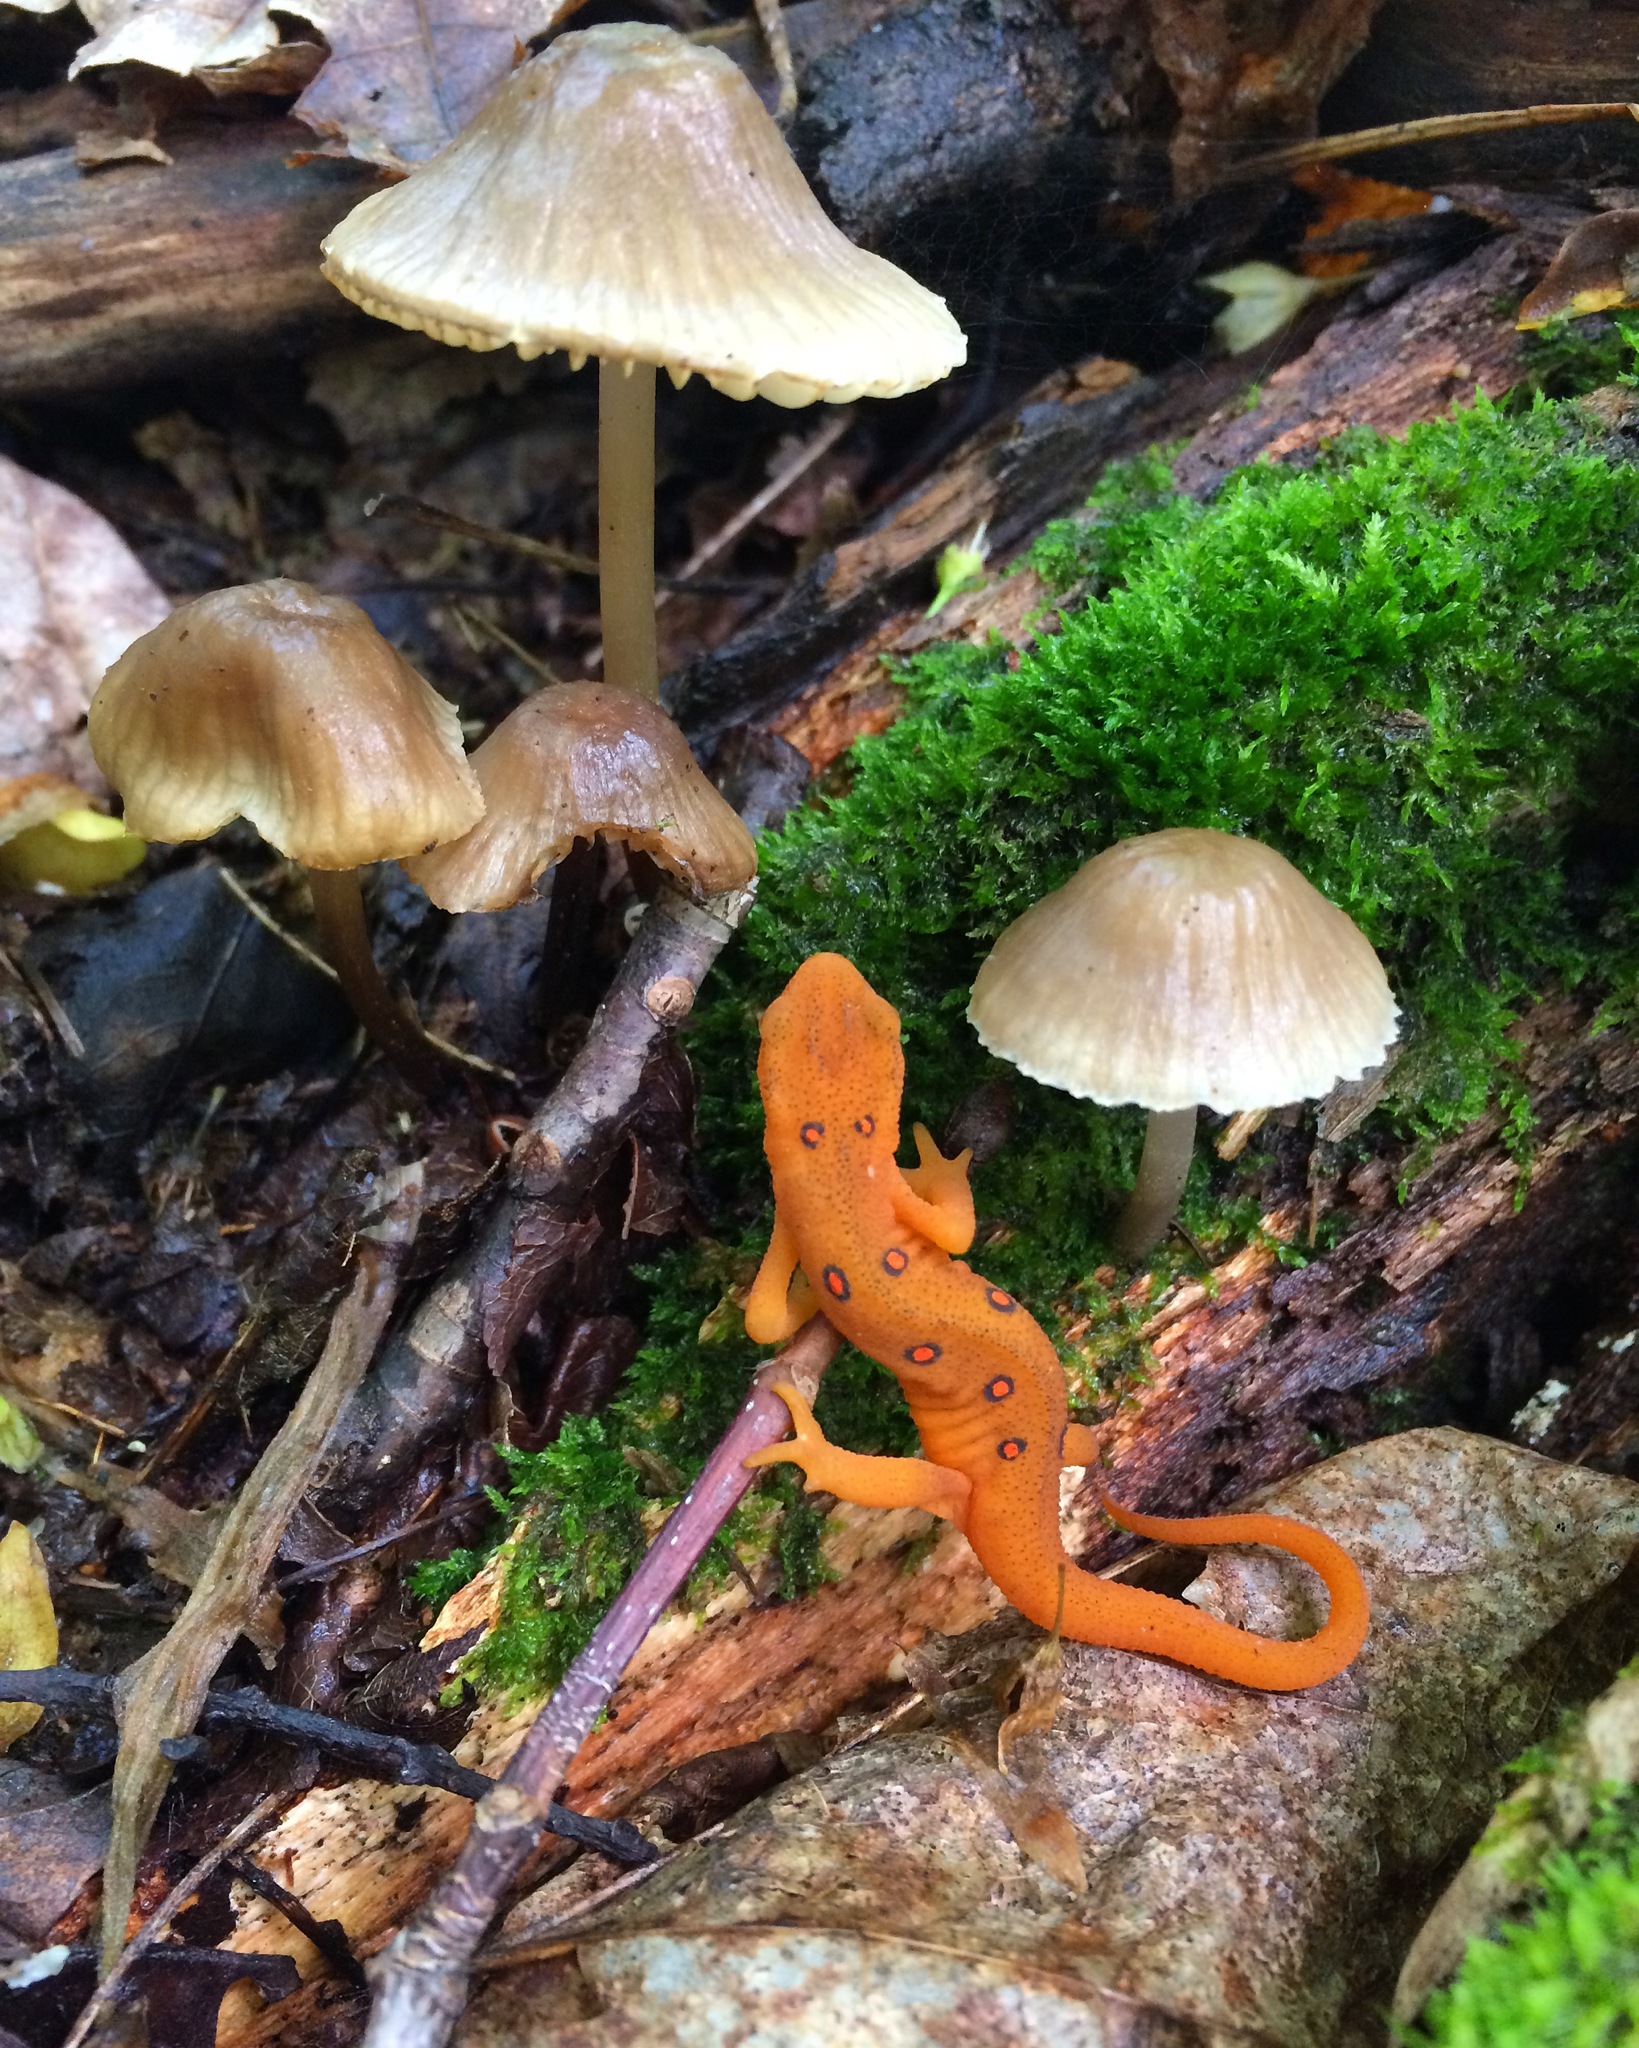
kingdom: Animalia
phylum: Chordata
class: Amphibia
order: Caudata
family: Salamandridae
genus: Notophthalmus
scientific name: Notophthalmus viridescens
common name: Eastern newt
